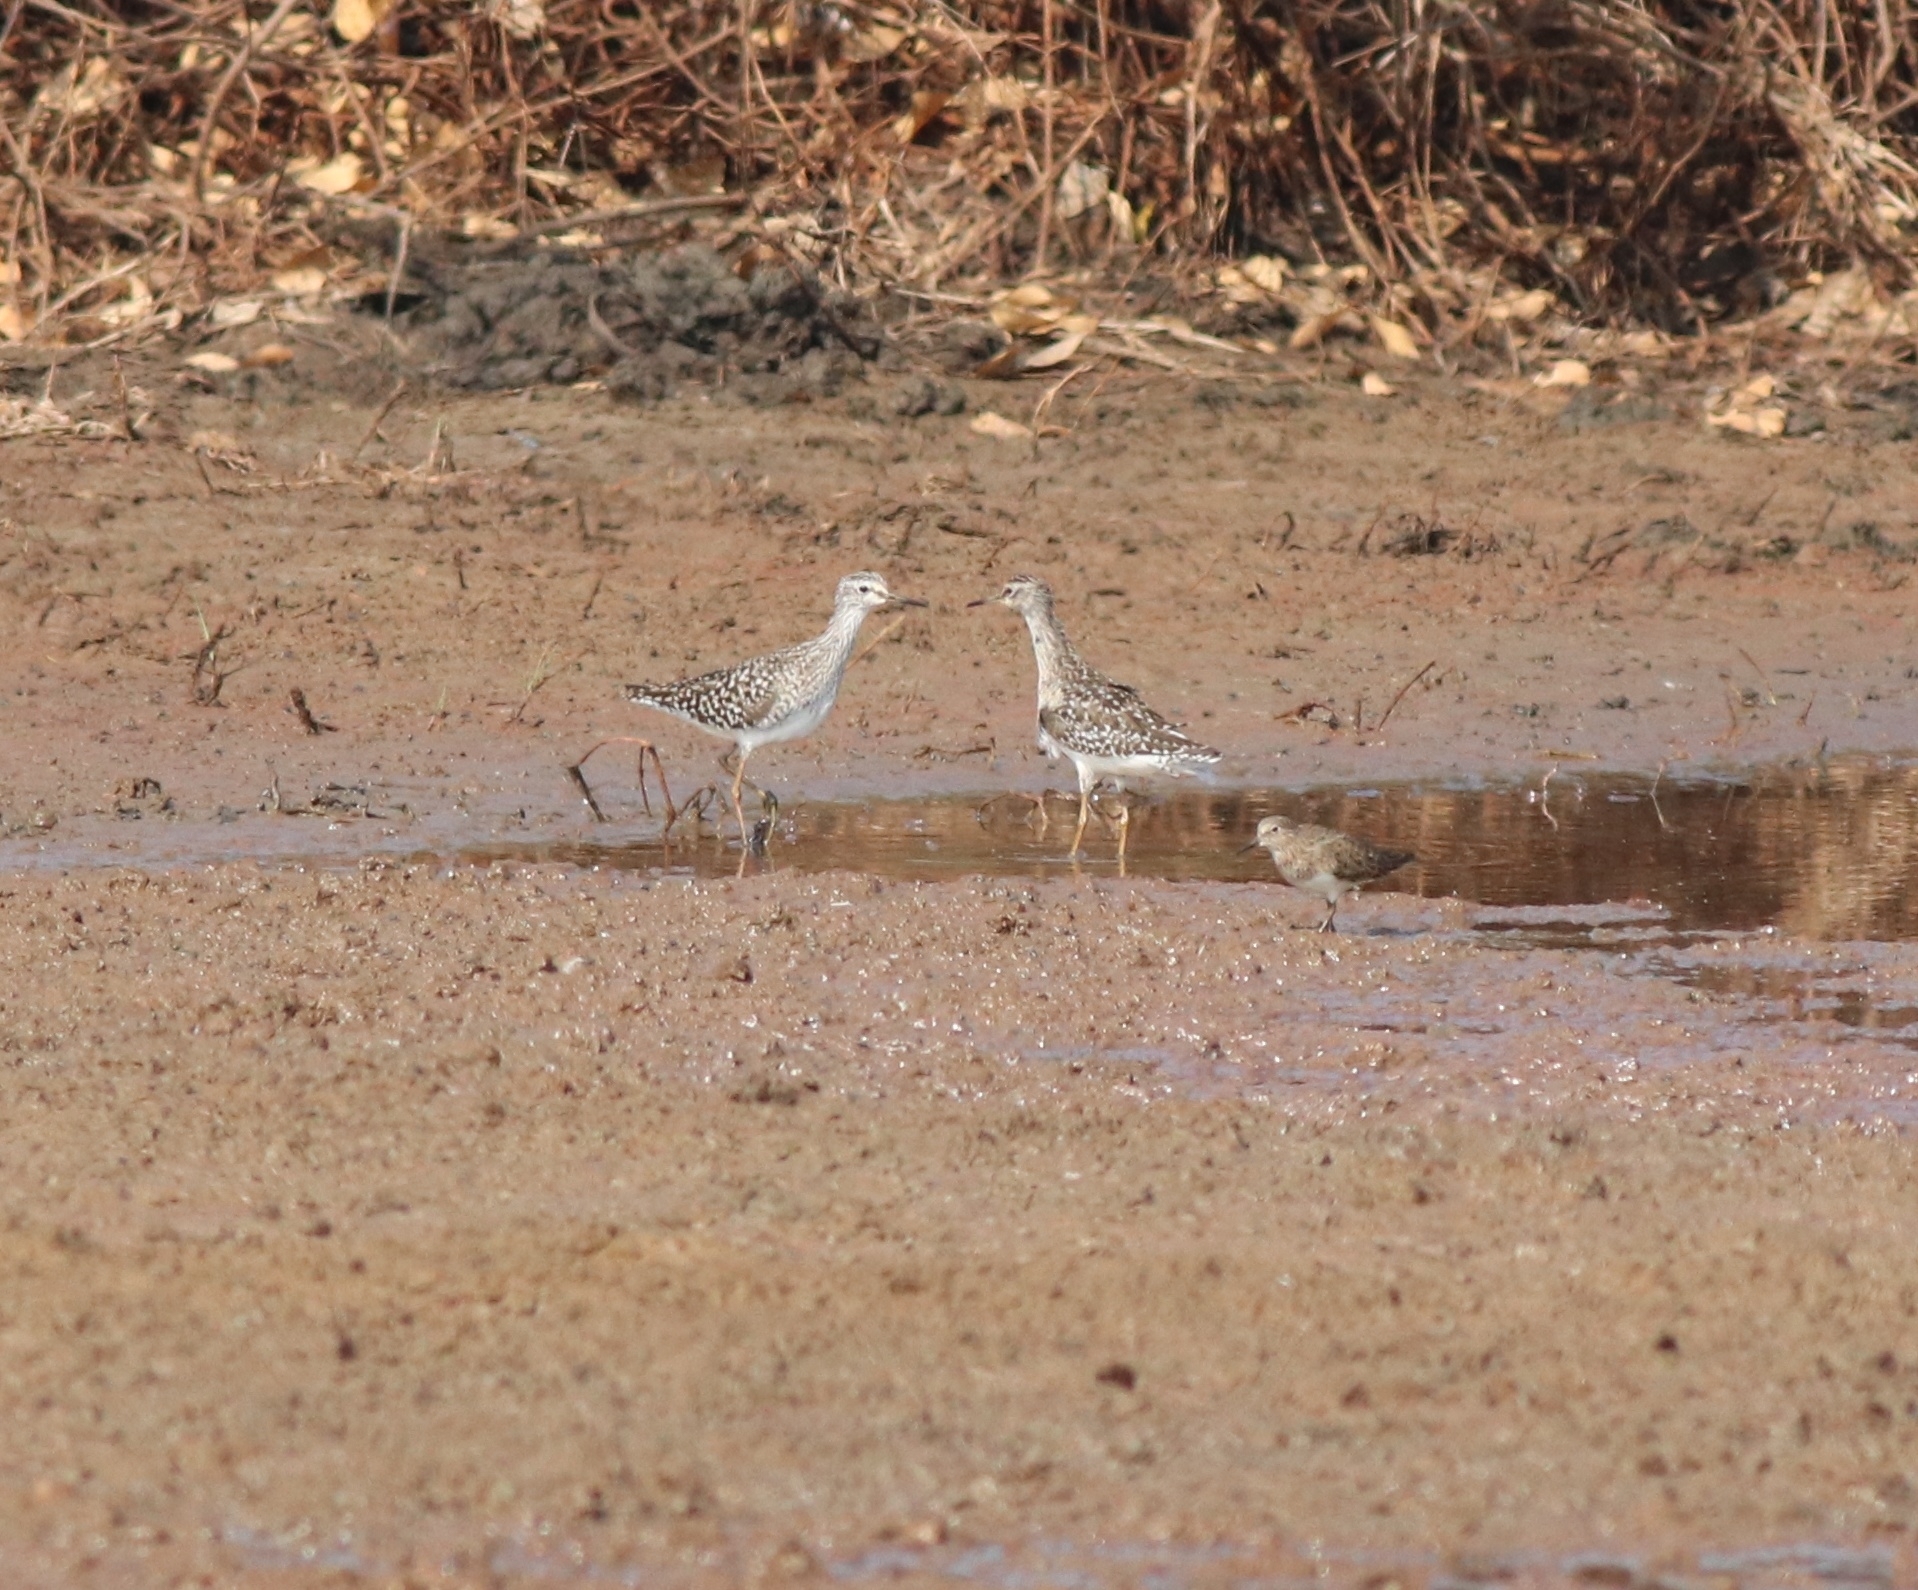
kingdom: Animalia
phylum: Chordata
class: Aves
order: Charadriiformes
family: Scolopacidae
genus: Calidris
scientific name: Calidris temminckii
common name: Temminck's stint
